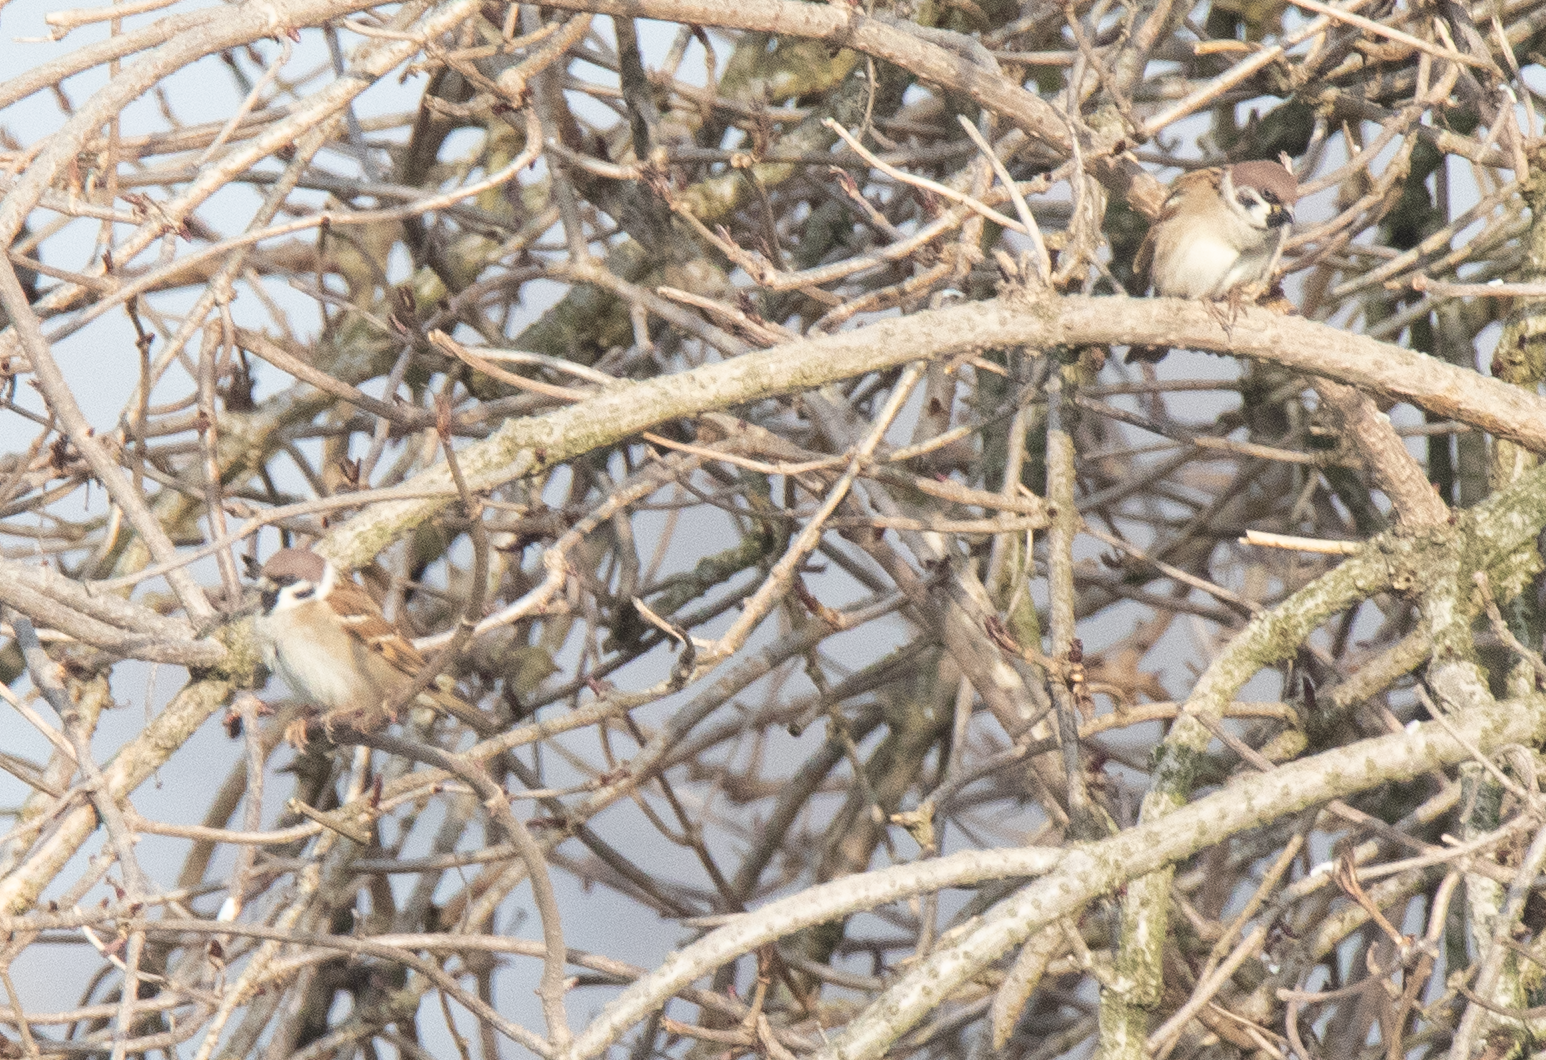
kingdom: Animalia
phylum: Chordata
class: Aves
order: Passeriformes
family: Passeridae
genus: Passer
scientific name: Passer montanus
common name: Eurasian tree sparrow
